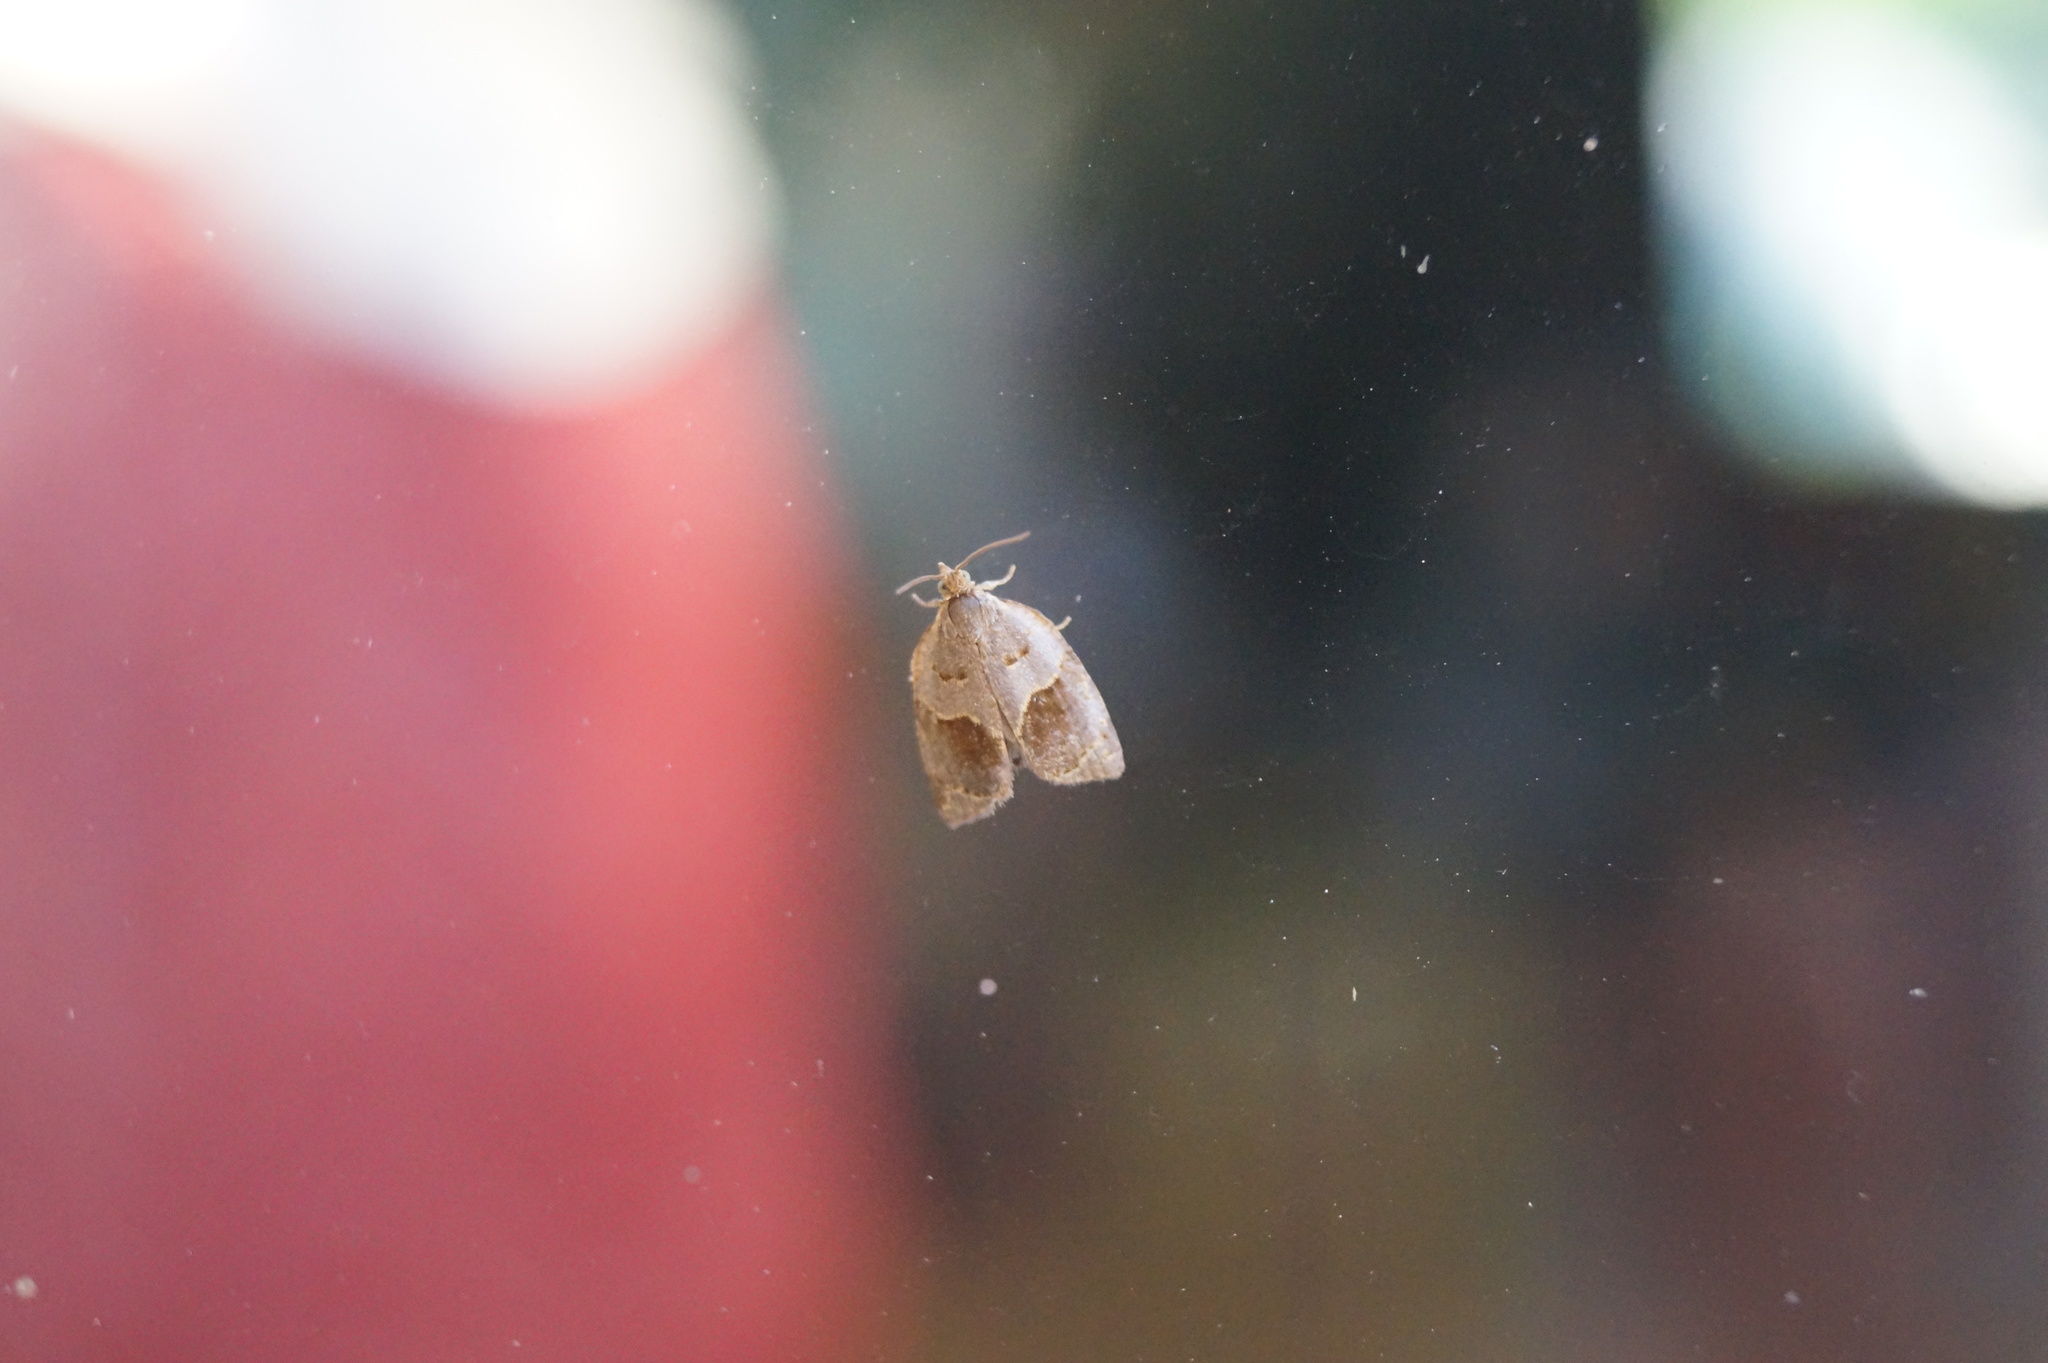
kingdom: Animalia
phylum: Arthropoda
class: Insecta
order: Lepidoptera
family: Tortricidae
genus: Clepsis
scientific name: Clepsis dumicolana
